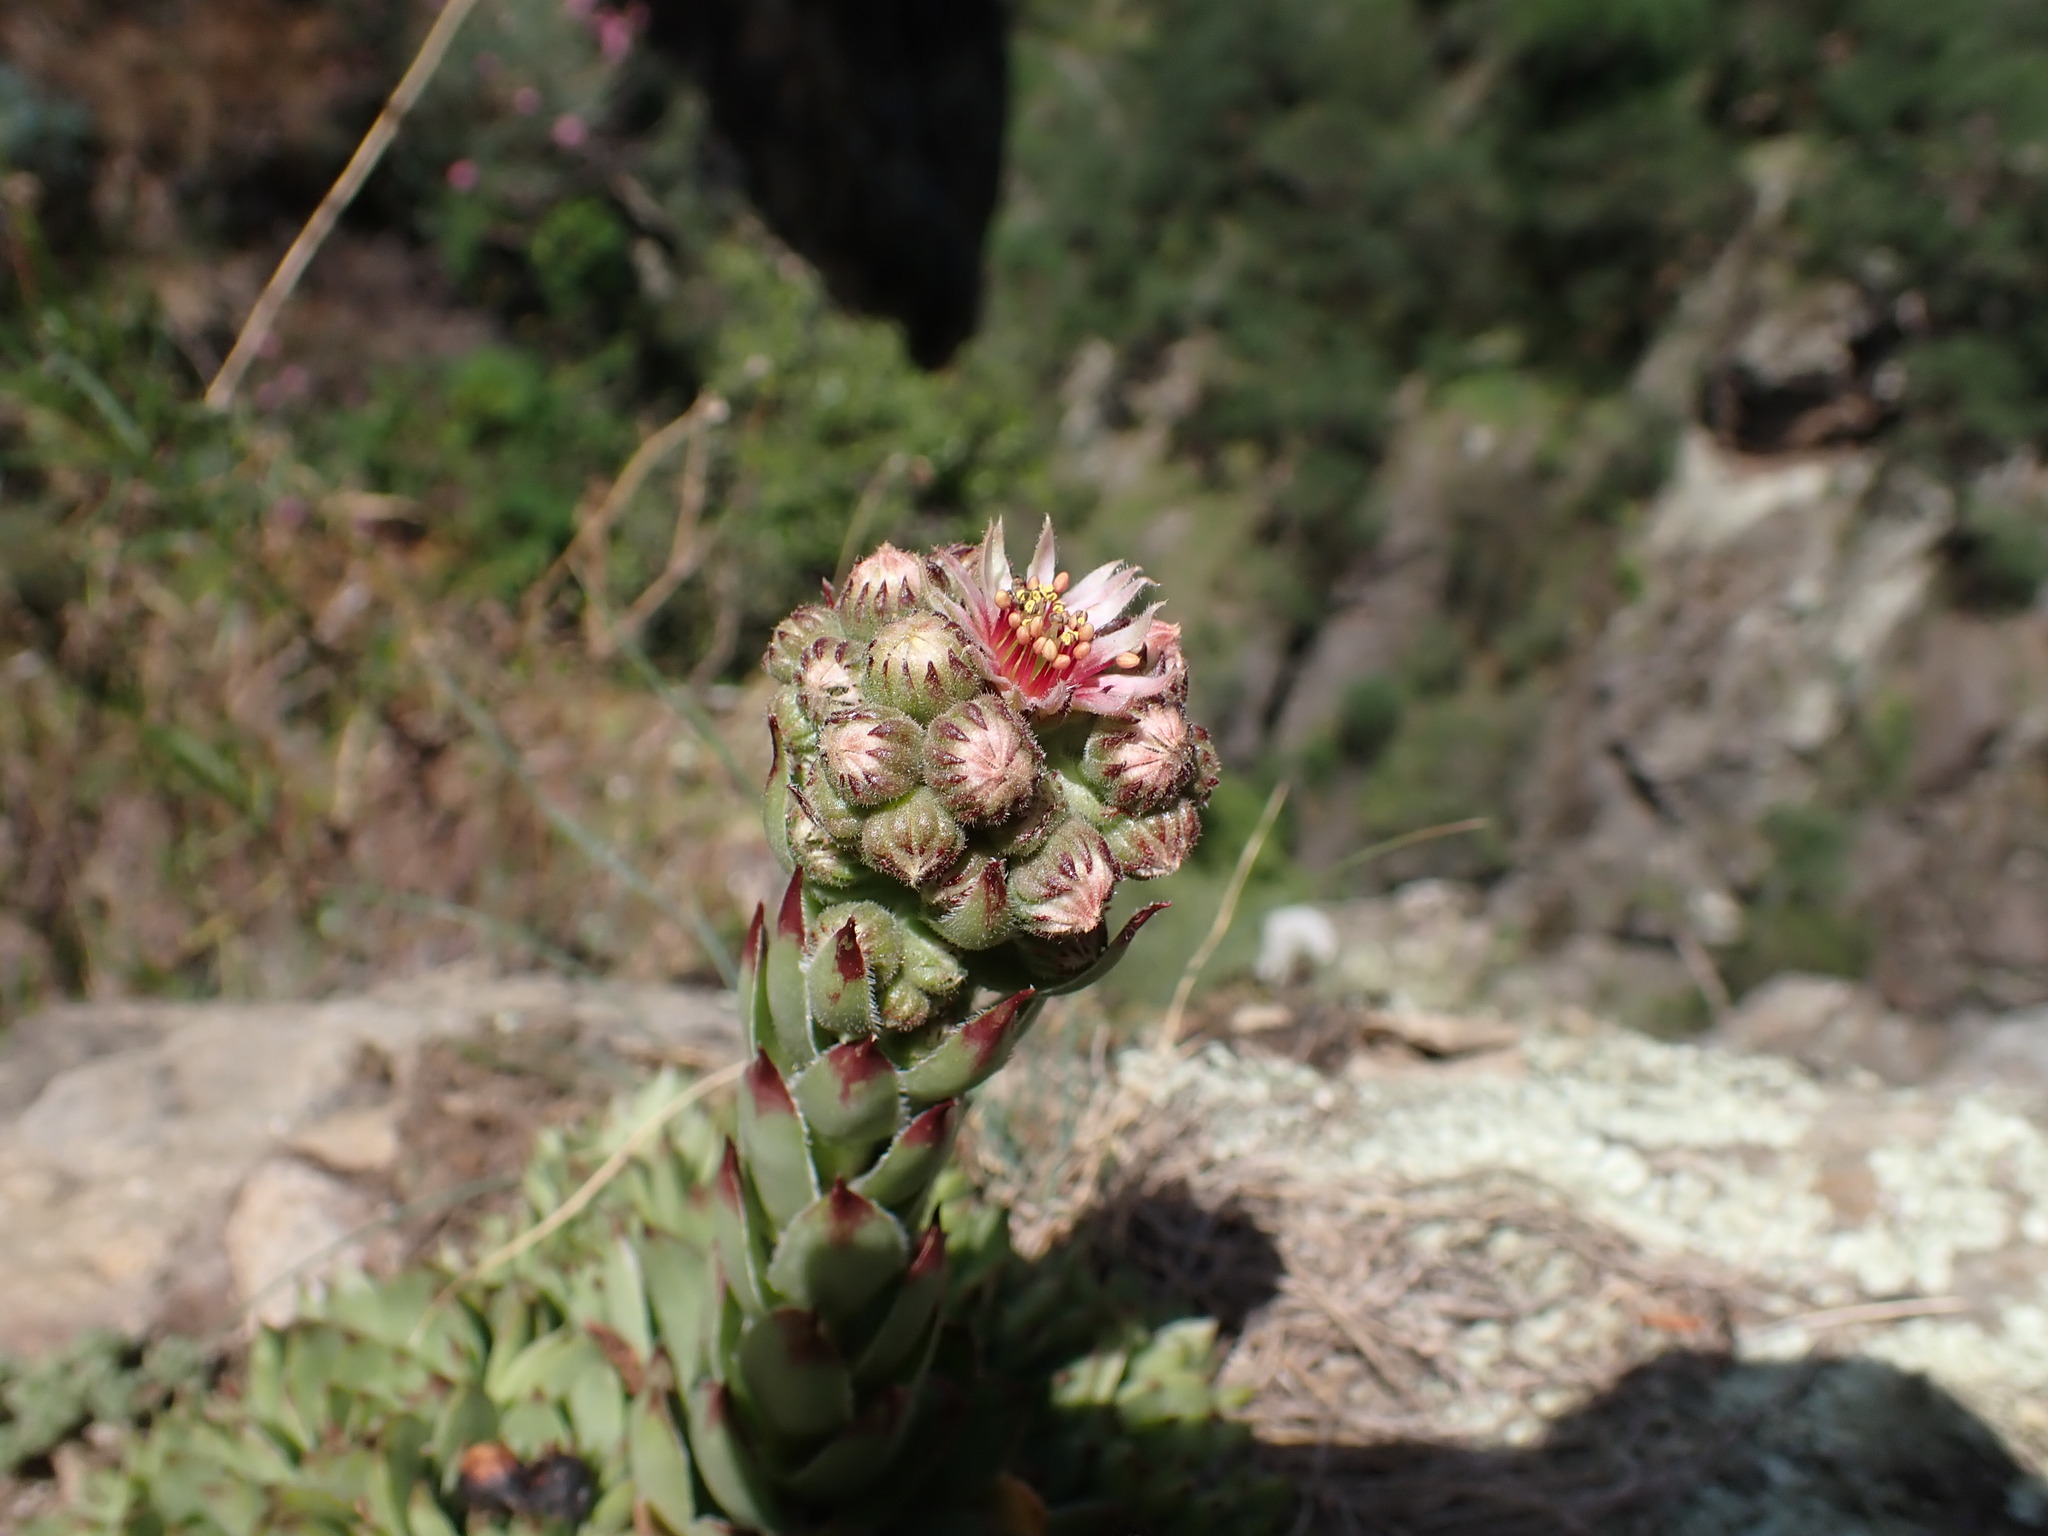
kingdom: Plantae
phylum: Tracheophyta
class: Magnoliopsida
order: Saxifragales
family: Crassulaceae
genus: Sempervivum
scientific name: Sempervivum tectorum
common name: House-leek
